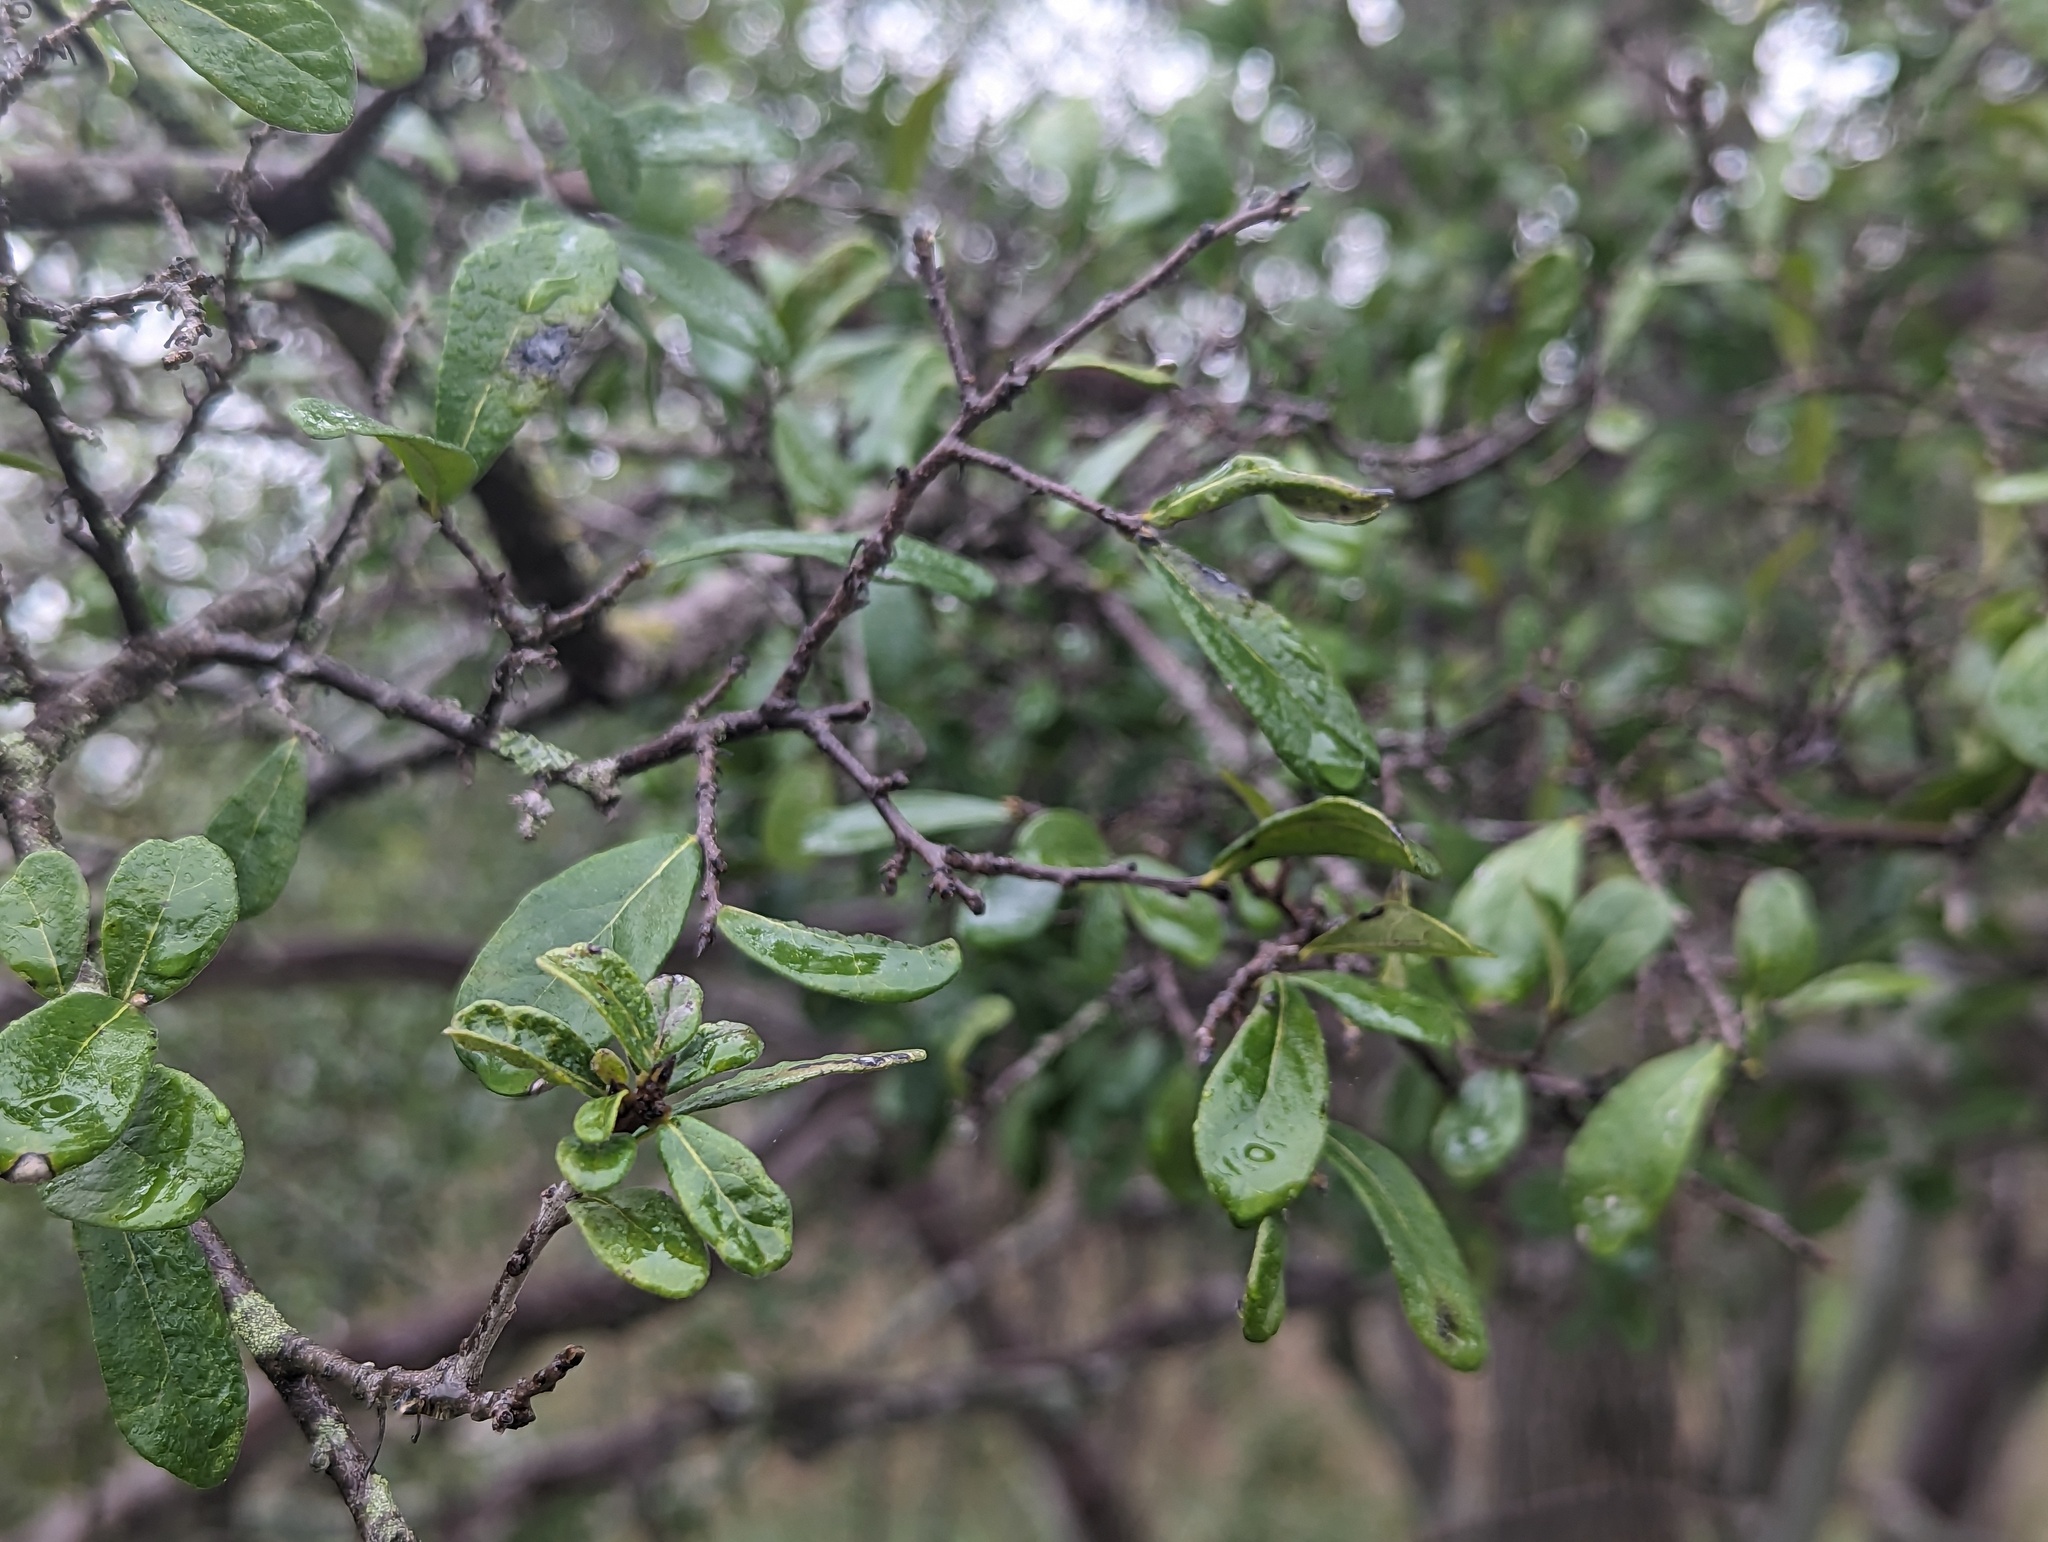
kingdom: Plantae
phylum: Tracheophyta
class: Magnoliopsida
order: Ericales
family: Ebenaceae
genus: Diospyros
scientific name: Diospyros texana
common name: Texas persimmon
